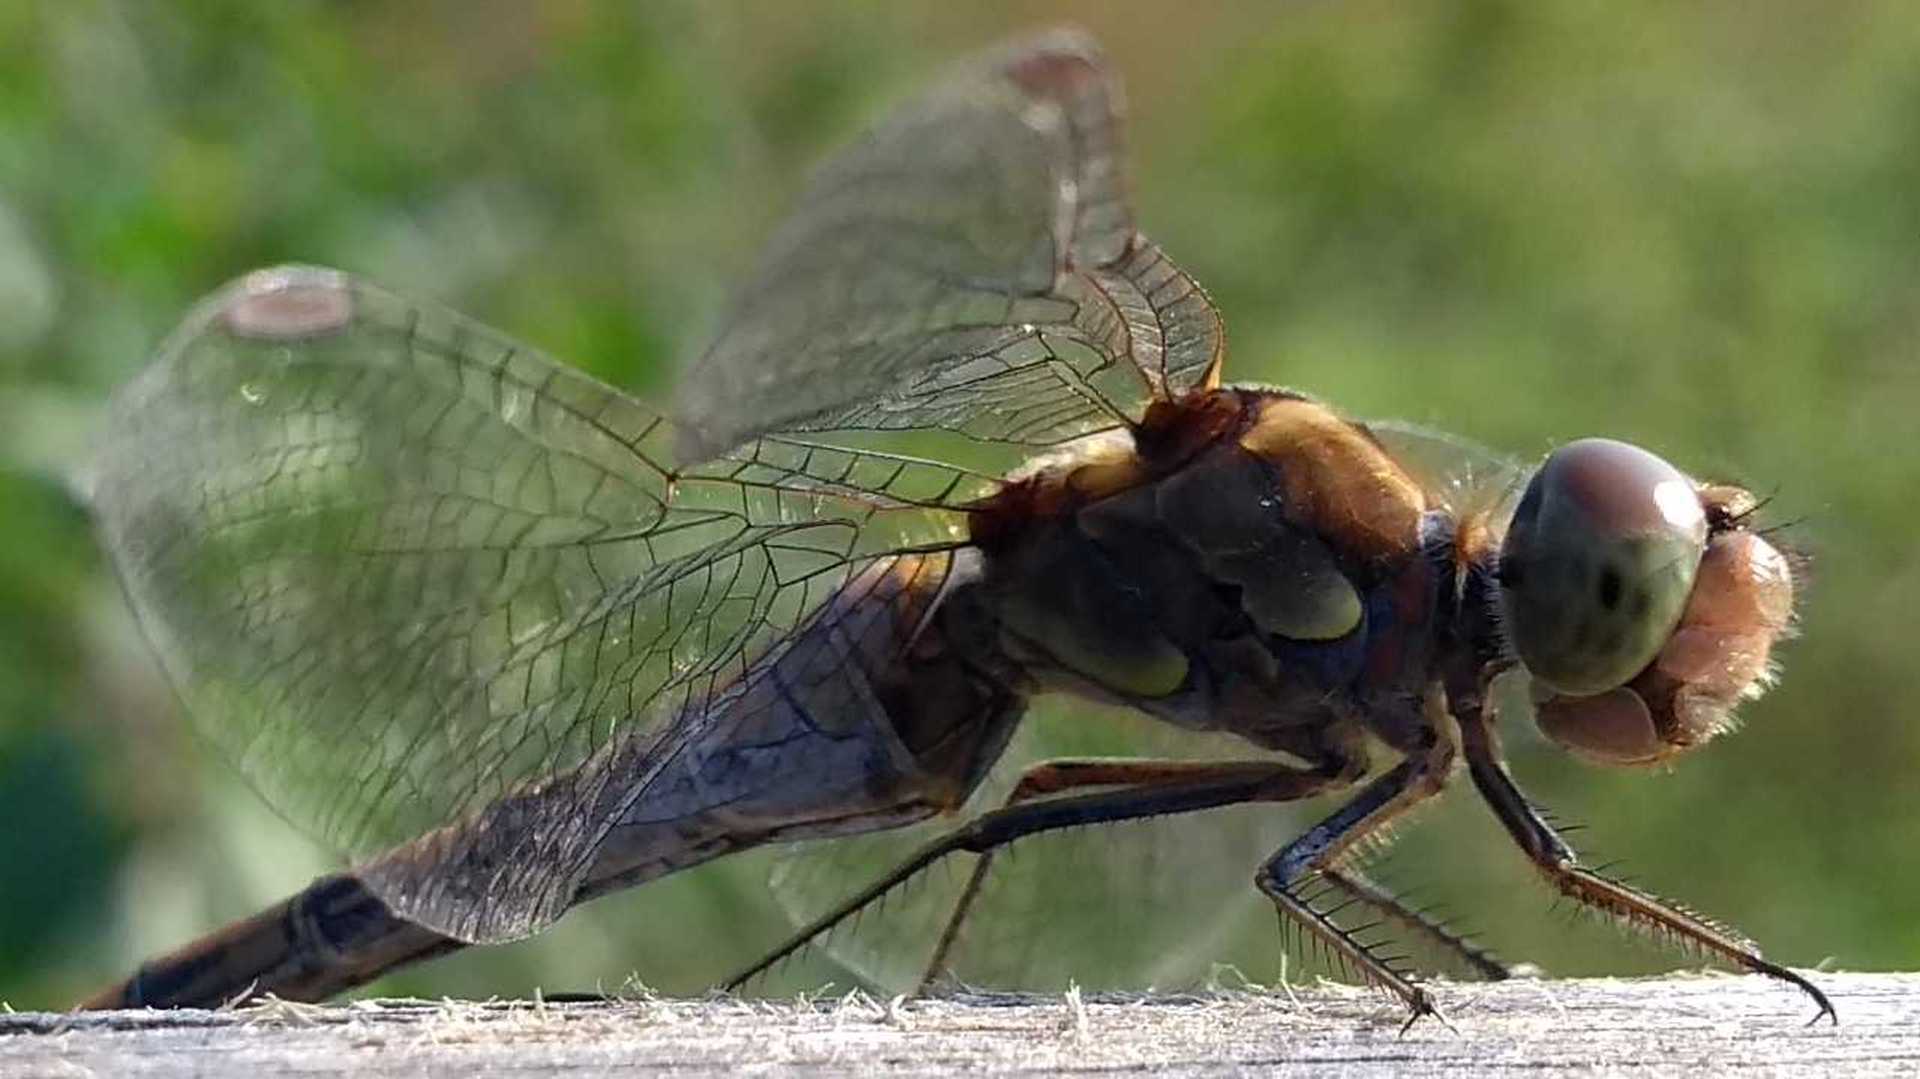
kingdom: Animalia
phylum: Arthropoda
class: Insecta
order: Odonata
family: Libellulidae
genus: Sympetrum
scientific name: Sympetrum striolatum
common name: Common darter
